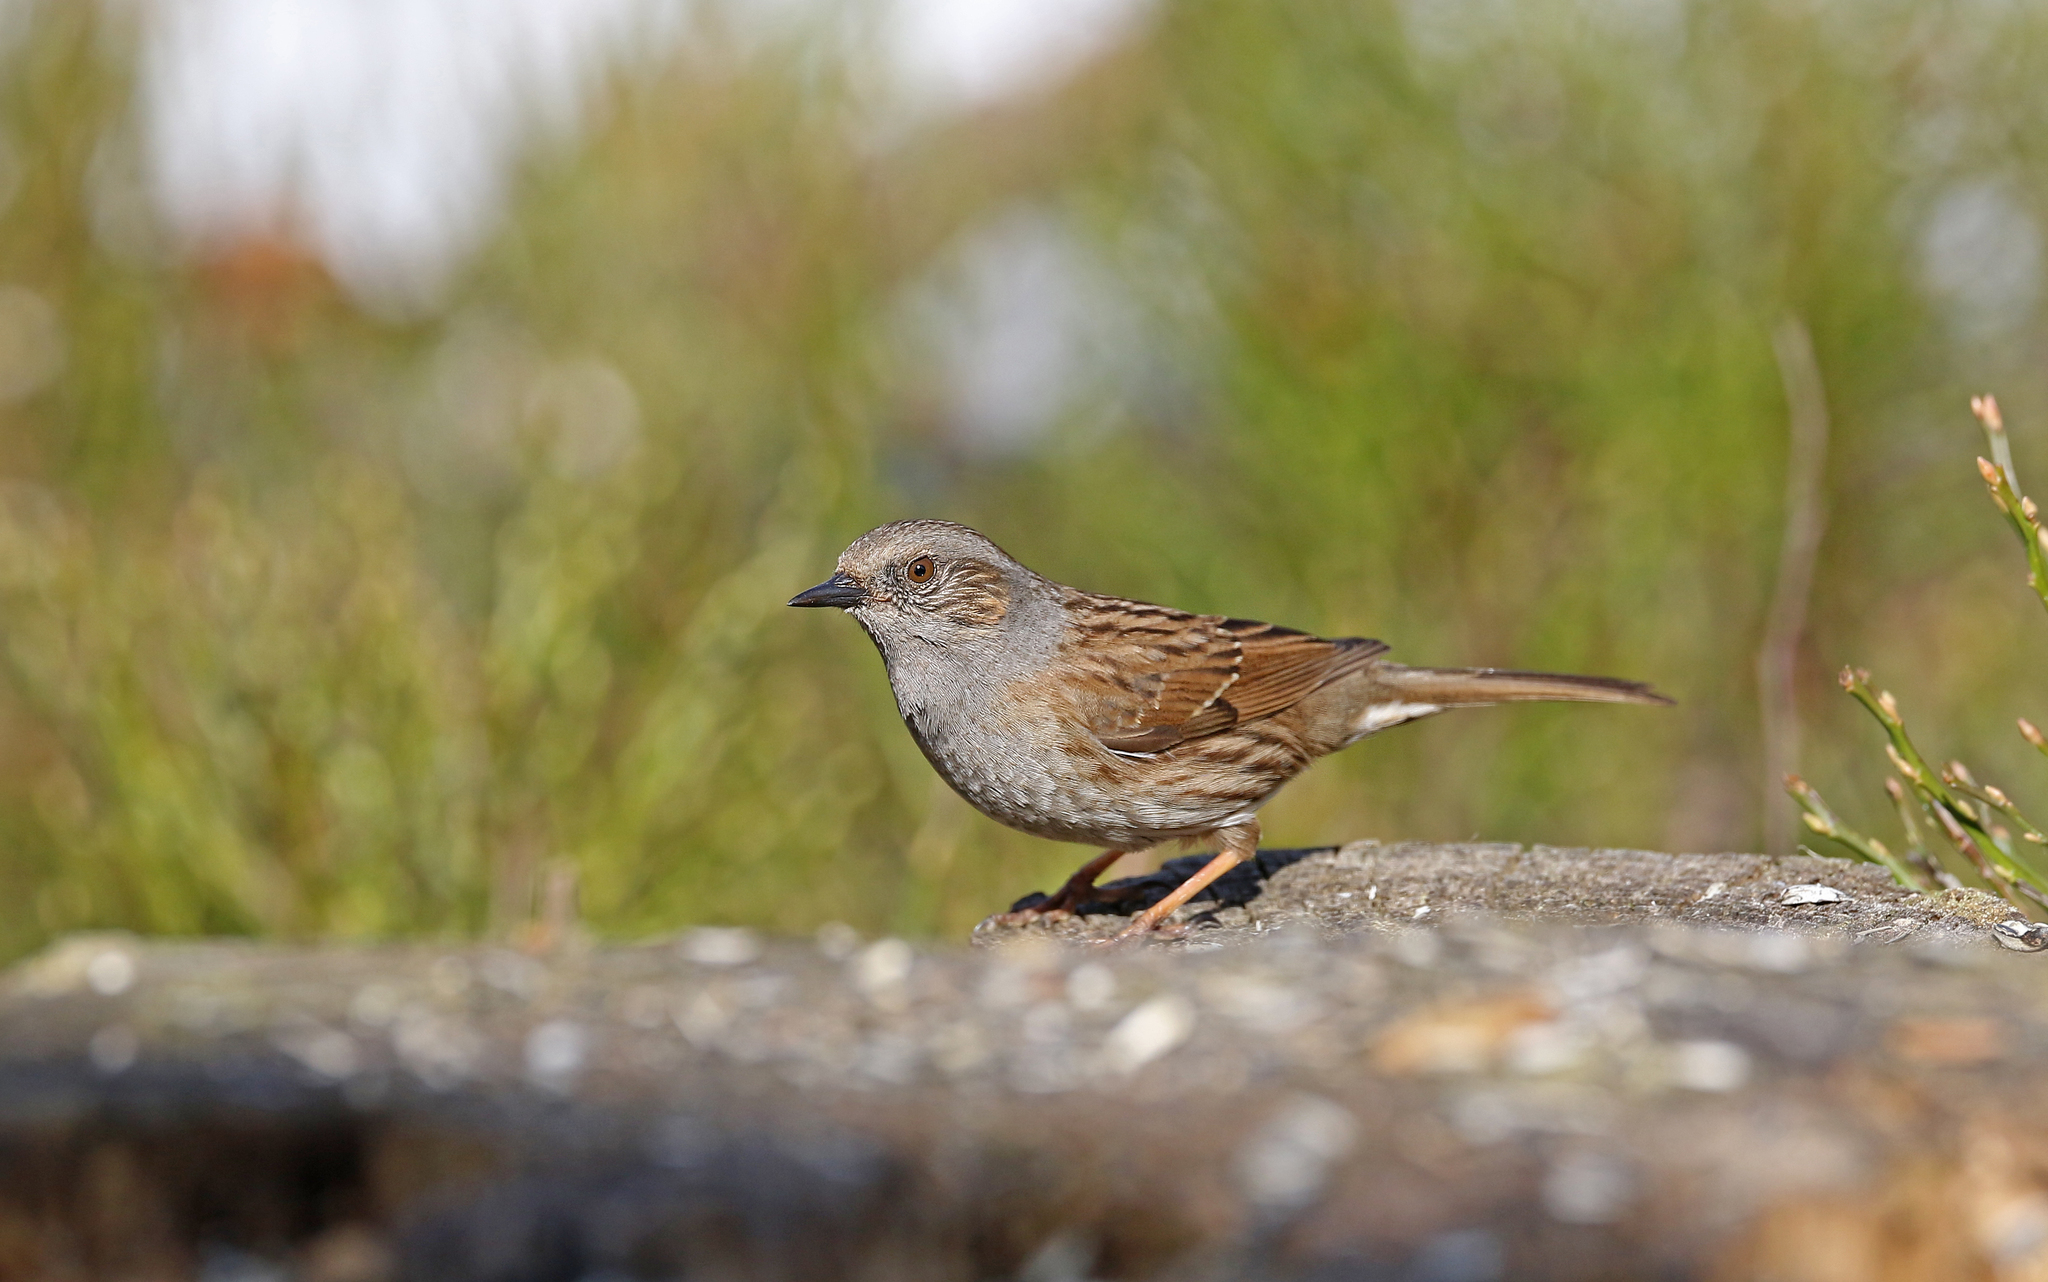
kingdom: Animalia
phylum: Chordata
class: Aves
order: Passeriformes
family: Prunellidae
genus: Prunella
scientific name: Prunella modularis
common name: Dunnock
